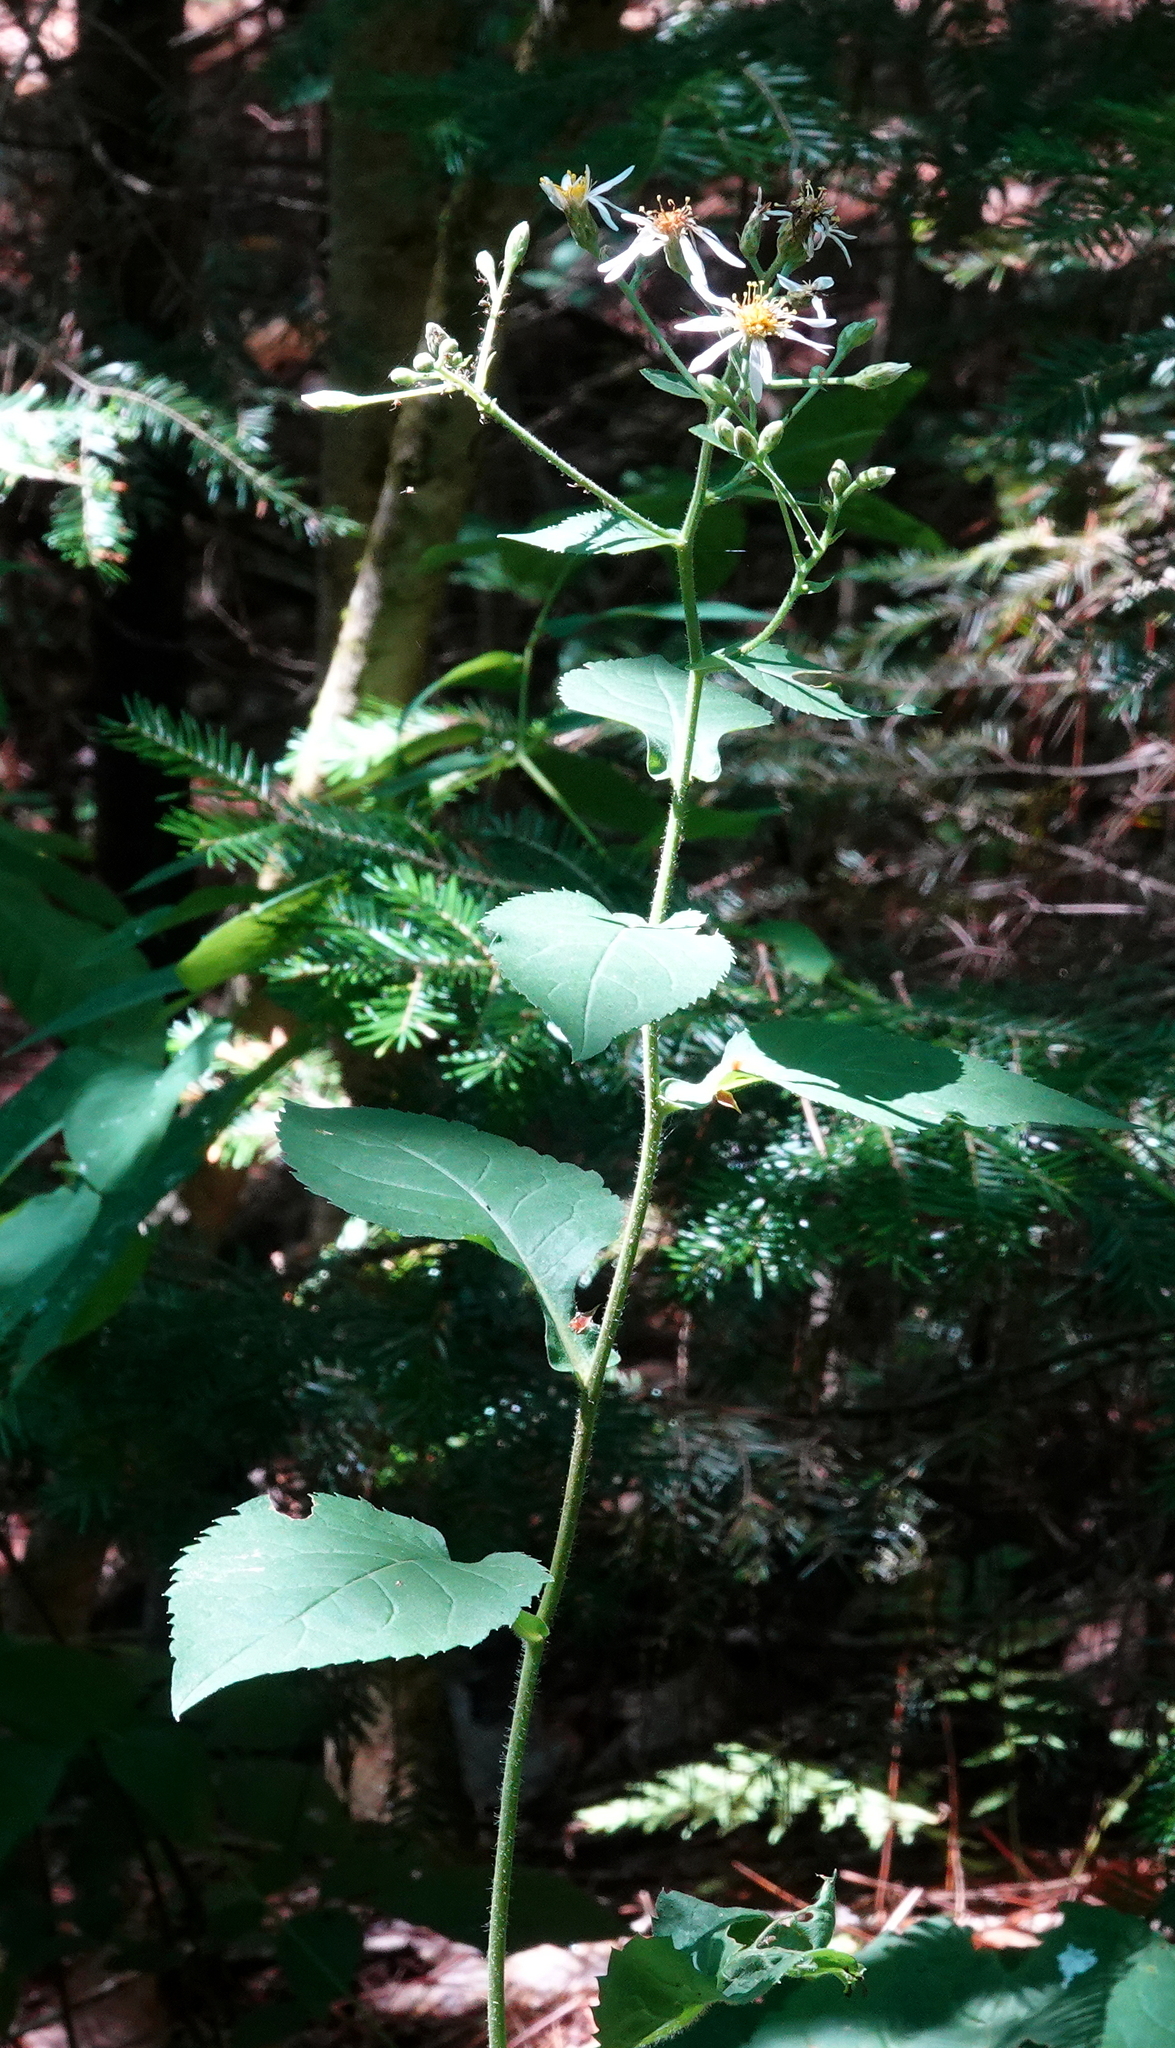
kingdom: Plantae
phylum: Tracheophyta
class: Magnoliopsida
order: Asterales
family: Asteraceae
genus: Eurybia
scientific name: Eurybia macrophylla
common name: Big-leaved aster
